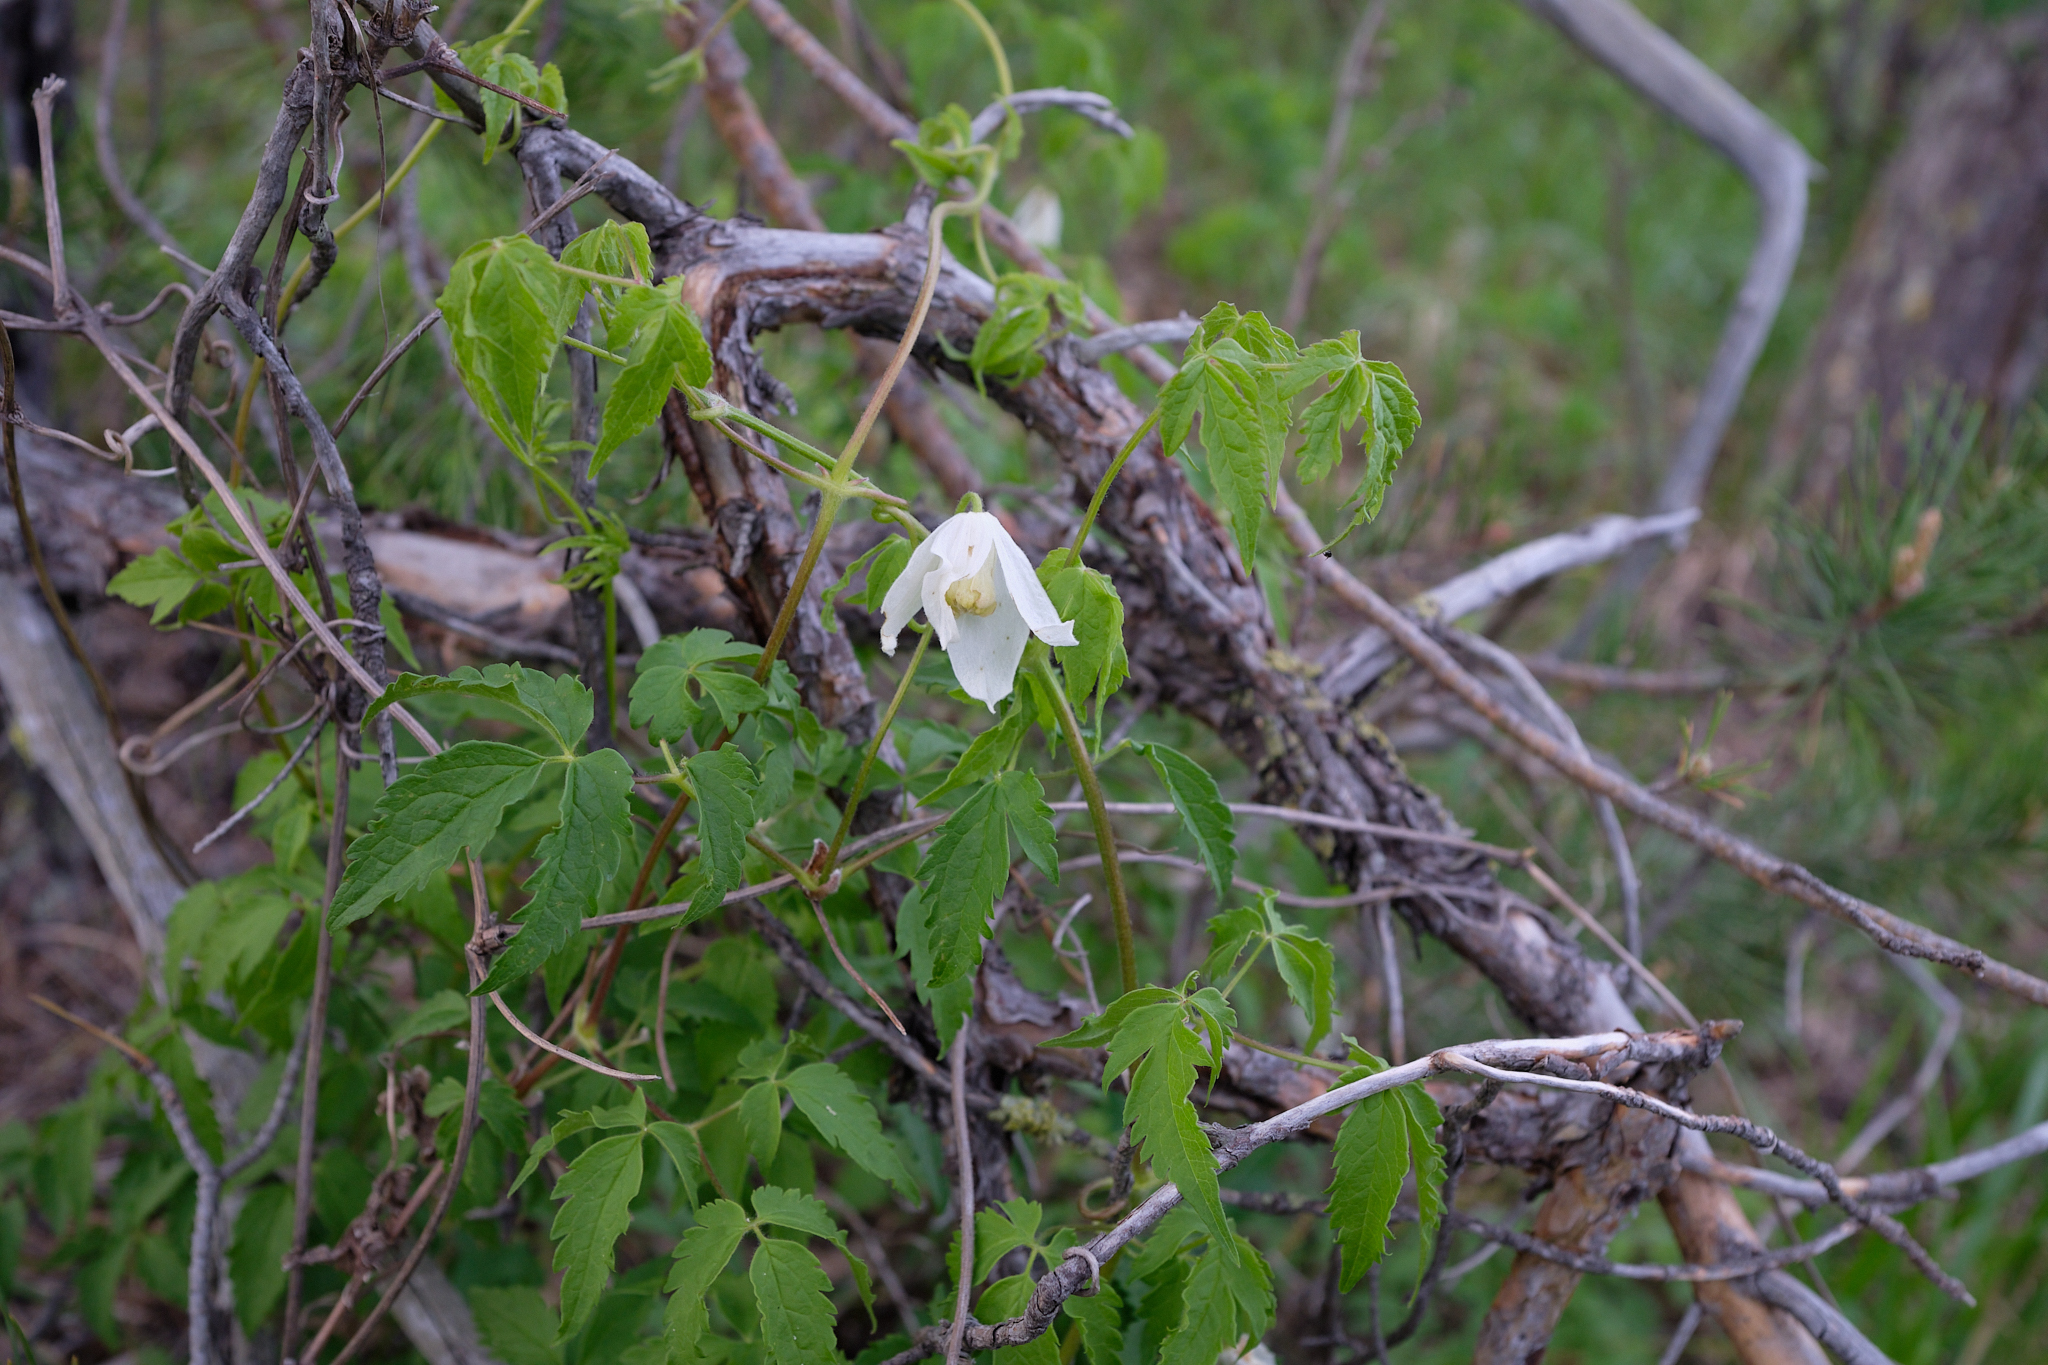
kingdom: Plantae
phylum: Tracheophyta
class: Magnoliopsida
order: Ranunculales
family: Ranunculaceae
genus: Clematis
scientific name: Clematis sibirica
